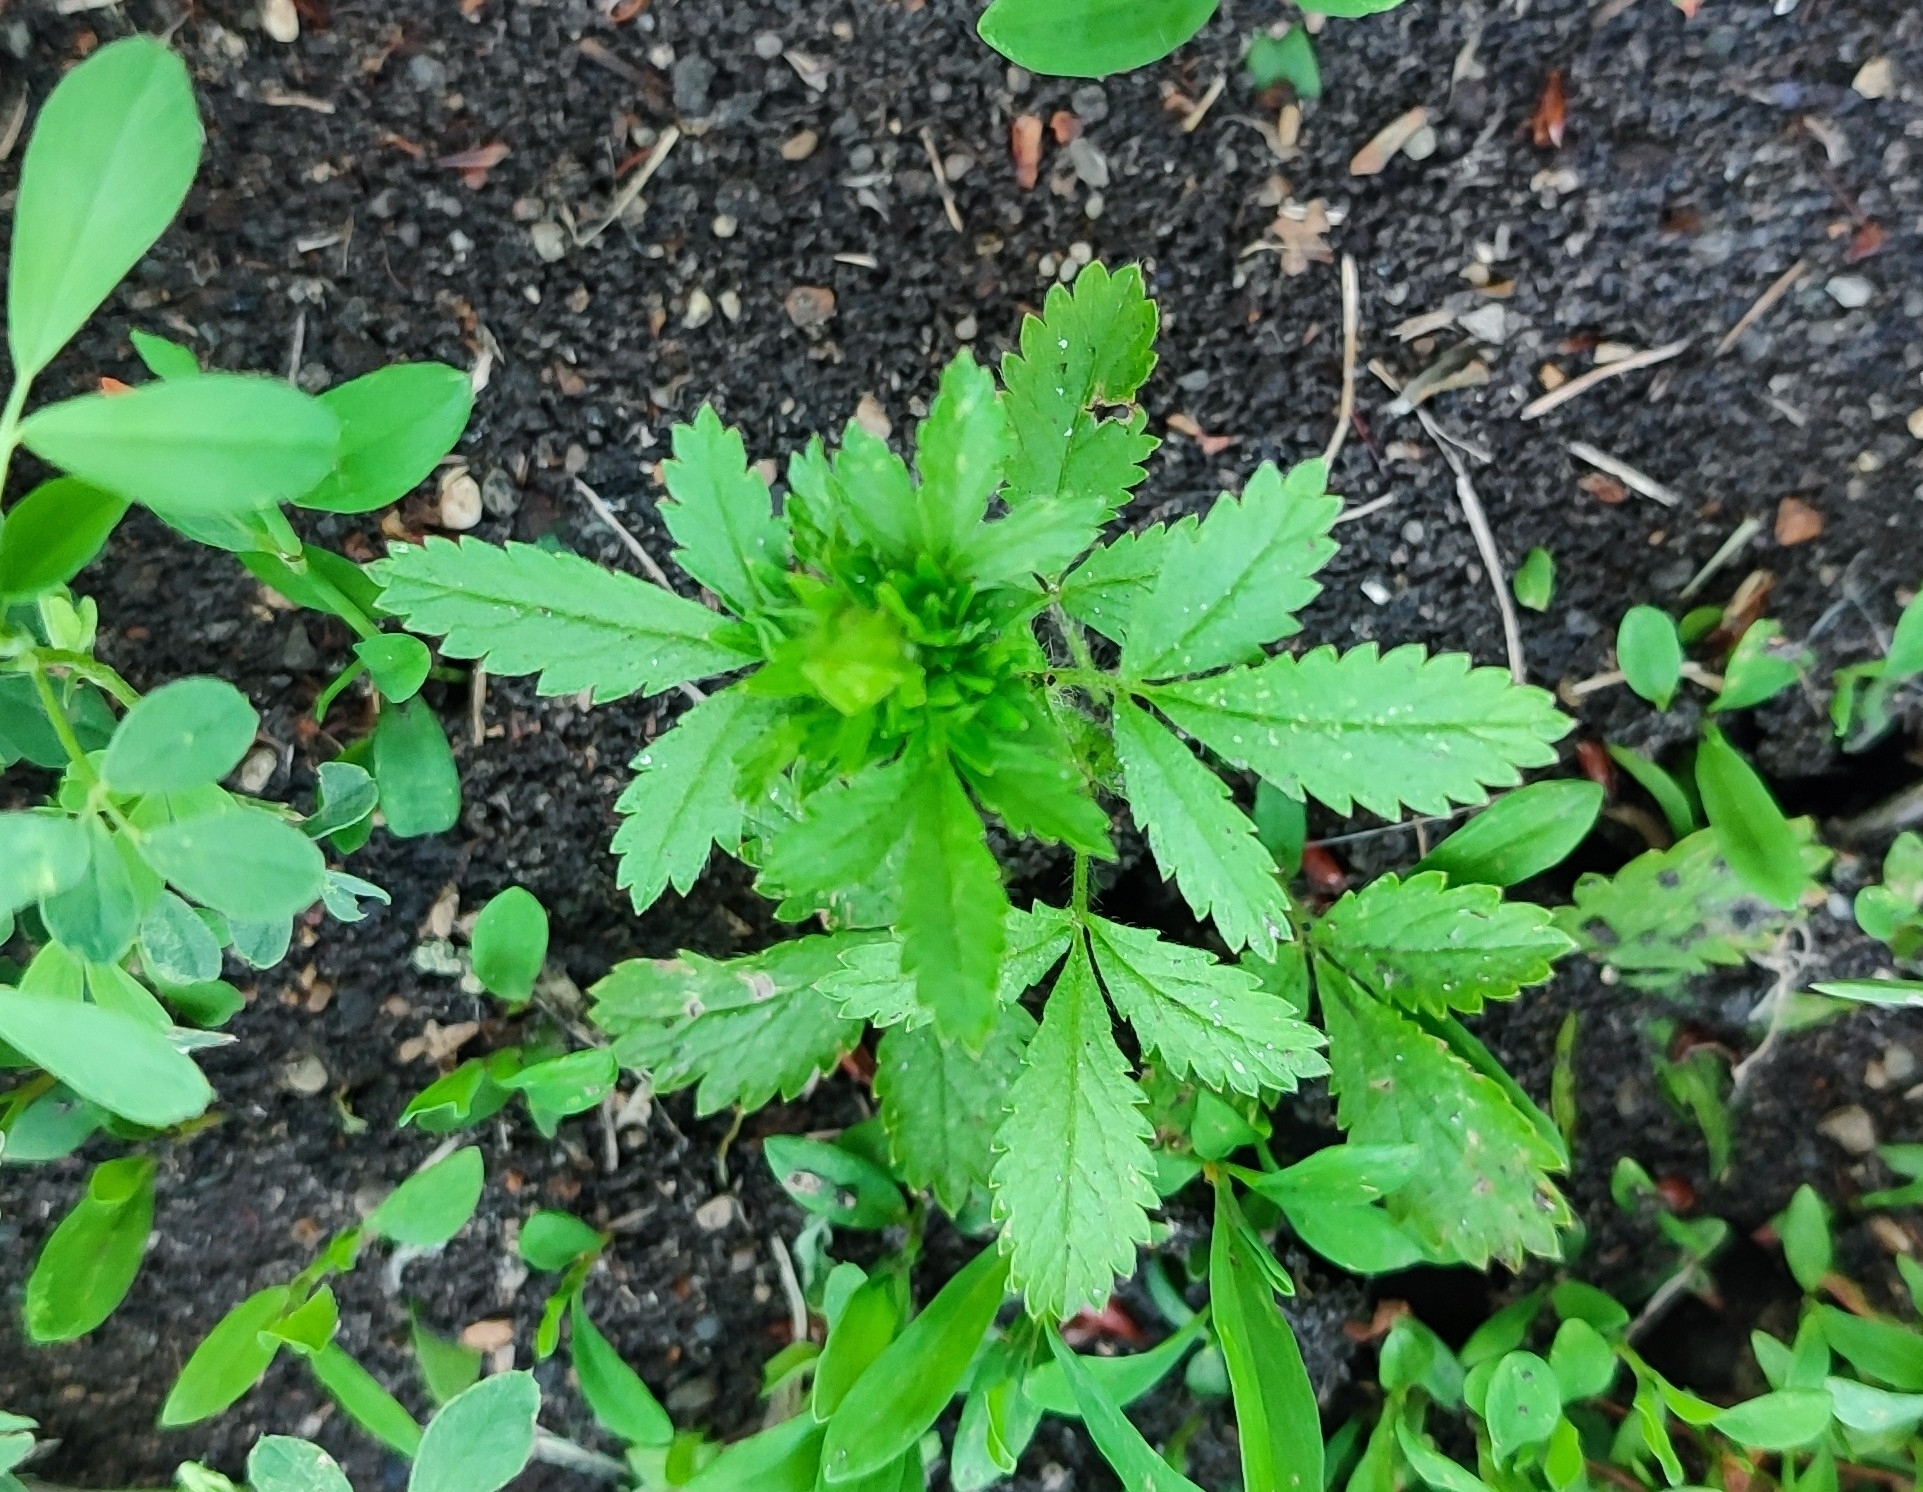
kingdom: Plantae
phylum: Tracheophyta
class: Magnoliopsida
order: Rosales
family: Rosaceae
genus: Potentilla
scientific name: Potentilla norvegica
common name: Ternate-leaved cinquefoil
